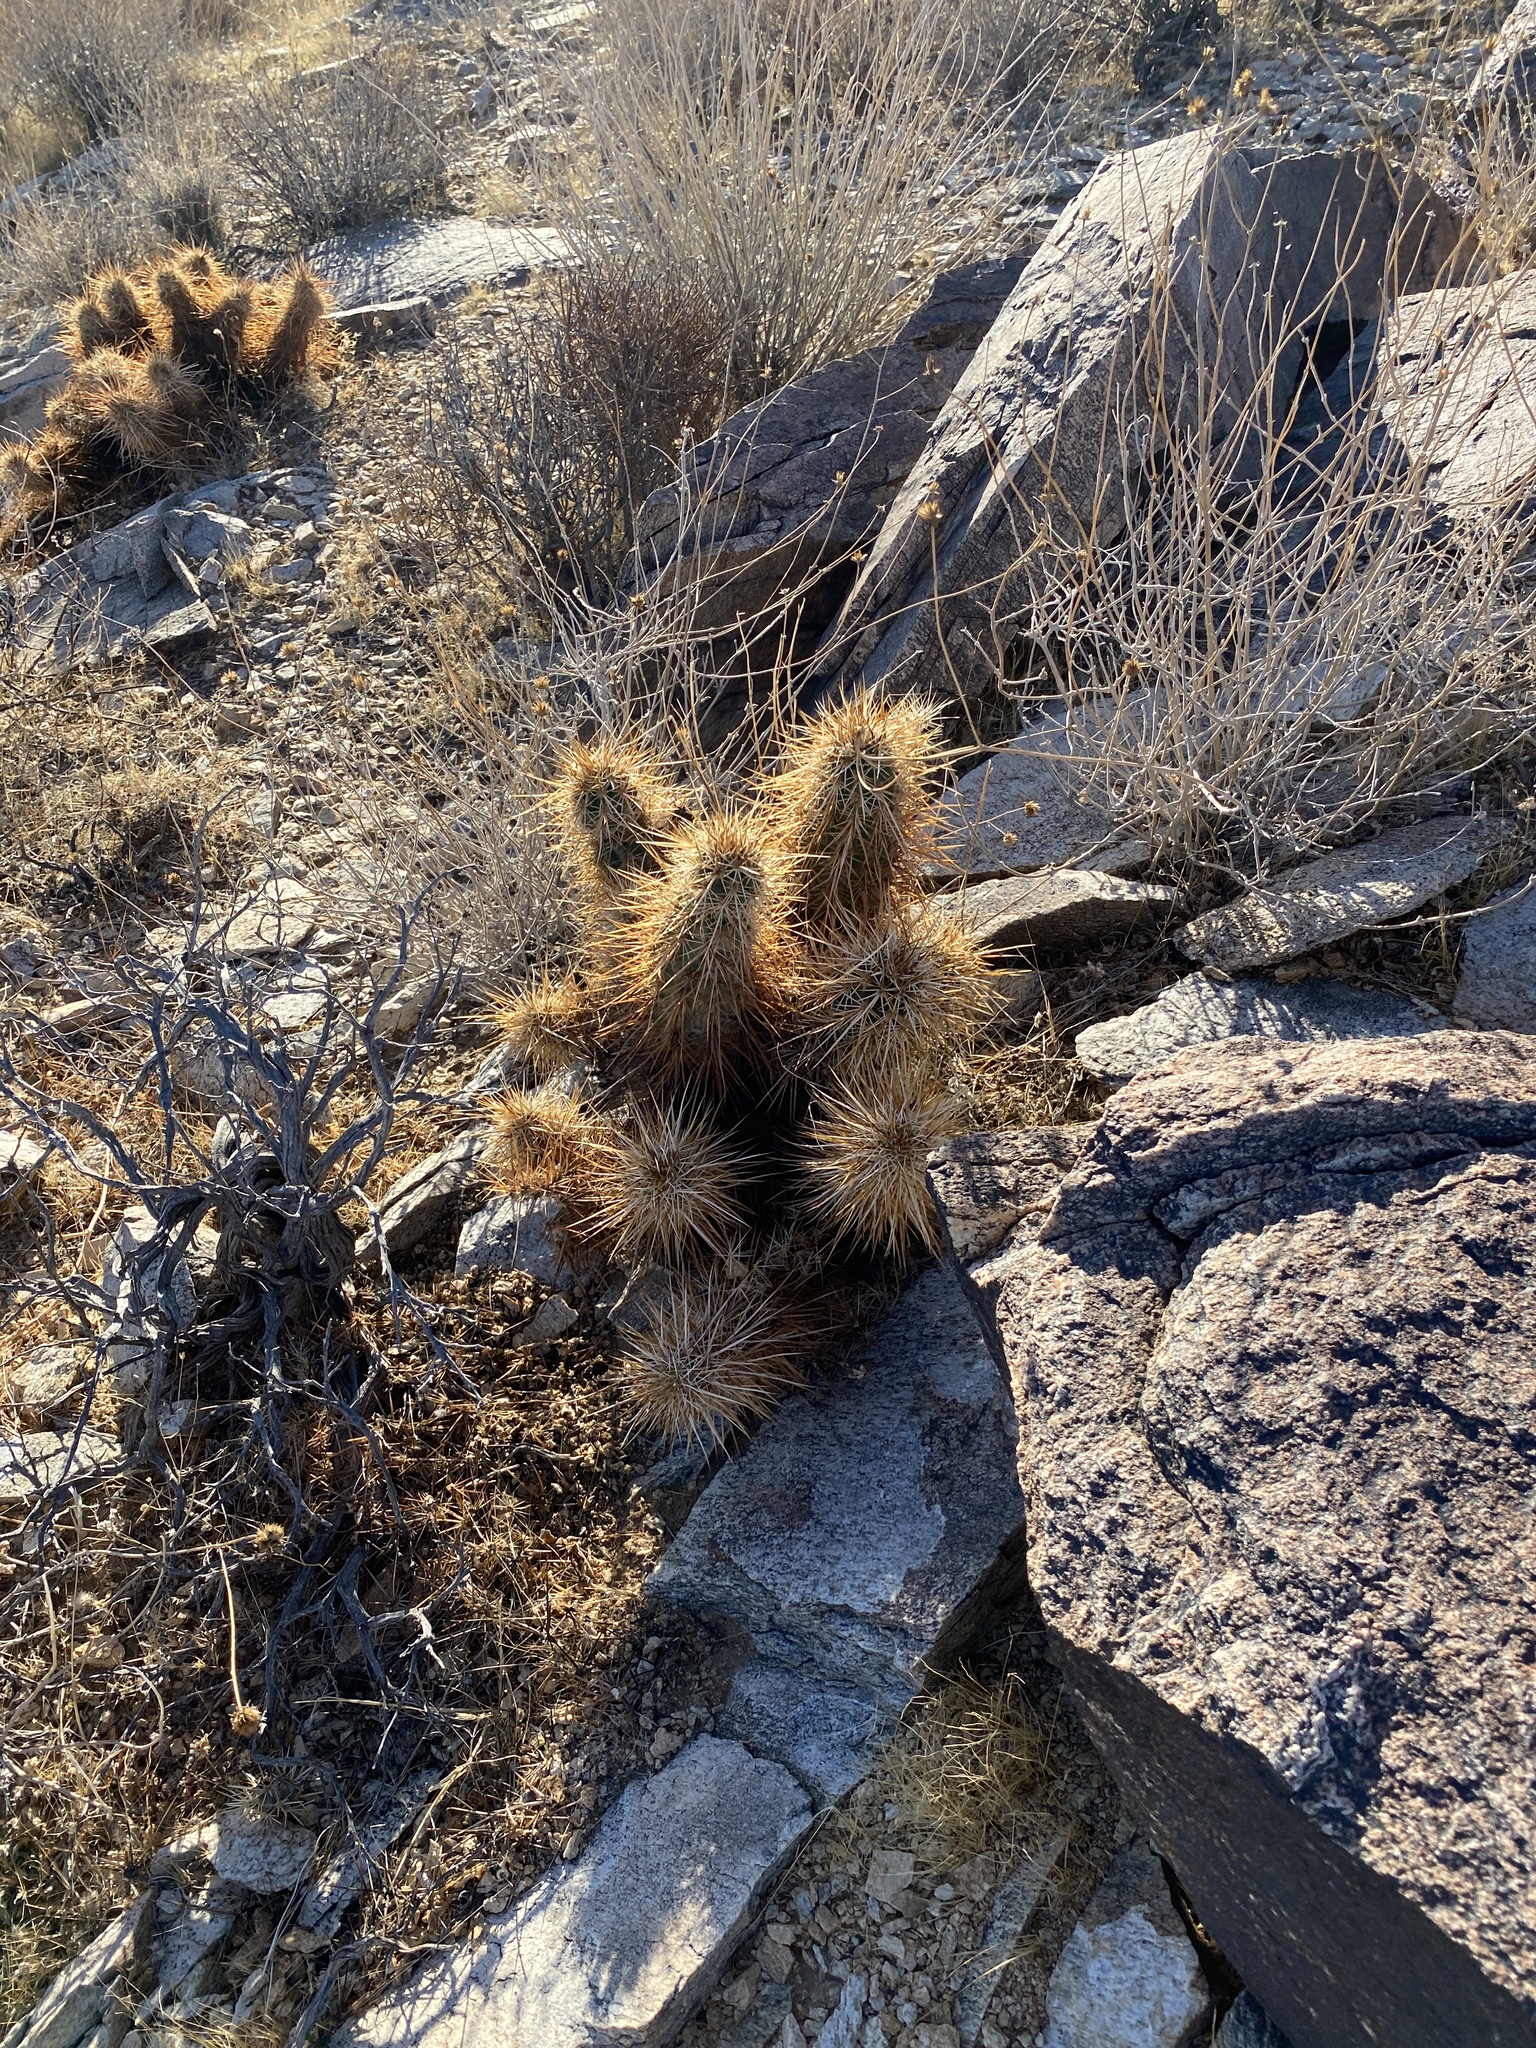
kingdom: Plantae
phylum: Tracheophyta
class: Magnoliopsida
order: Caryophyllales
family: Cactaceae
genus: Echinocereus
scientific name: Echinocereus engelmannii
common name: Engelmann's hedgehog cactus
